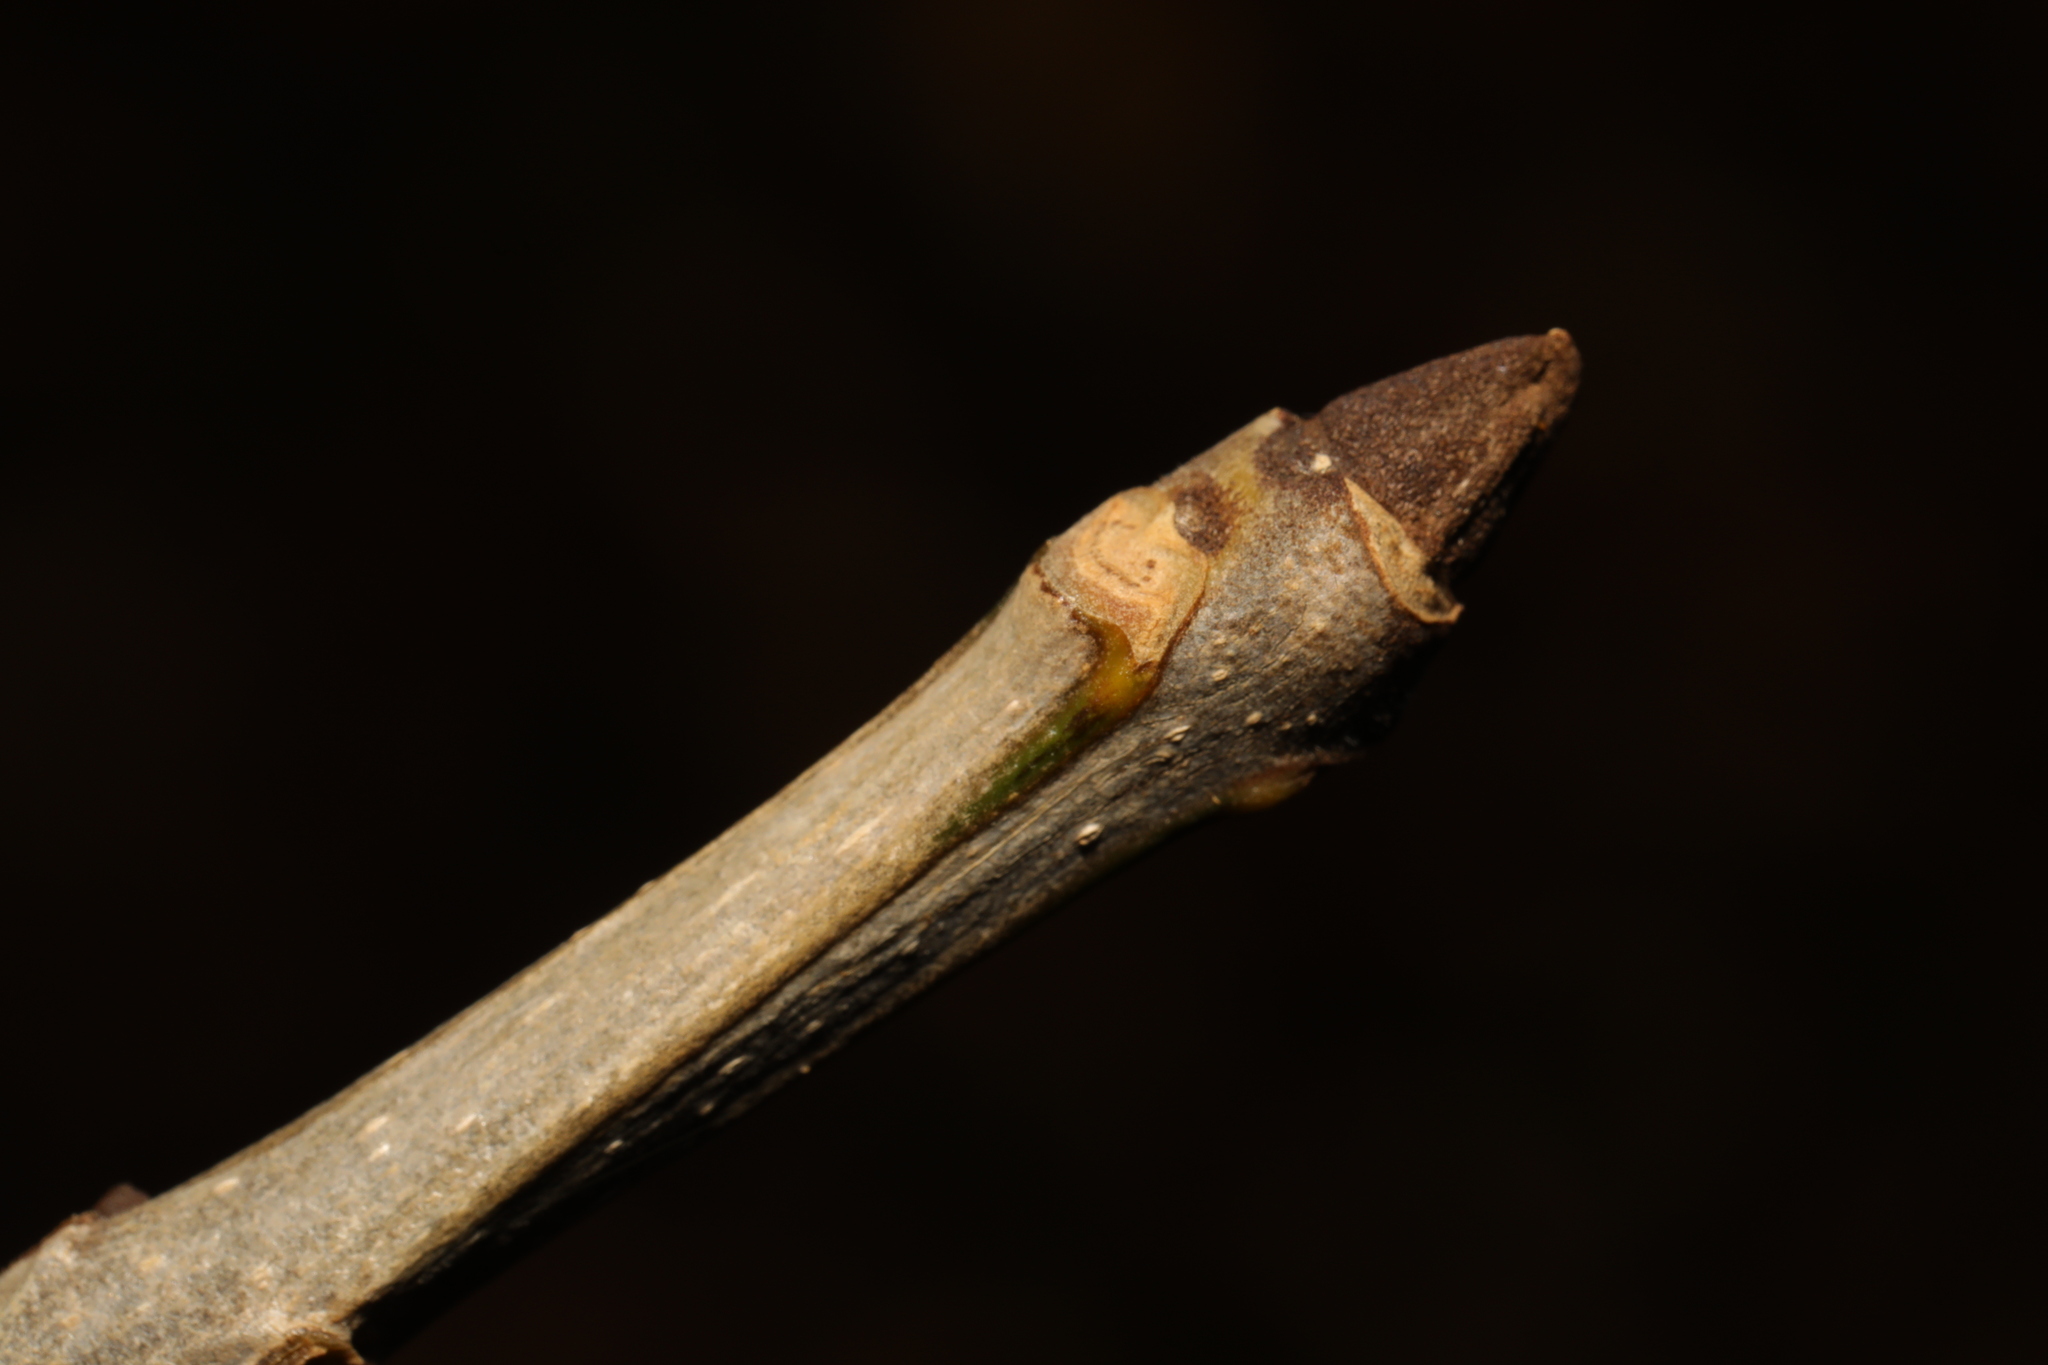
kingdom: Plantae
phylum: Tracheophyta
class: Magnoliopsida
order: Lamiales
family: Oleaceae
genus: Fraxinus
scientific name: Fraxinus excelsior
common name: European ash
